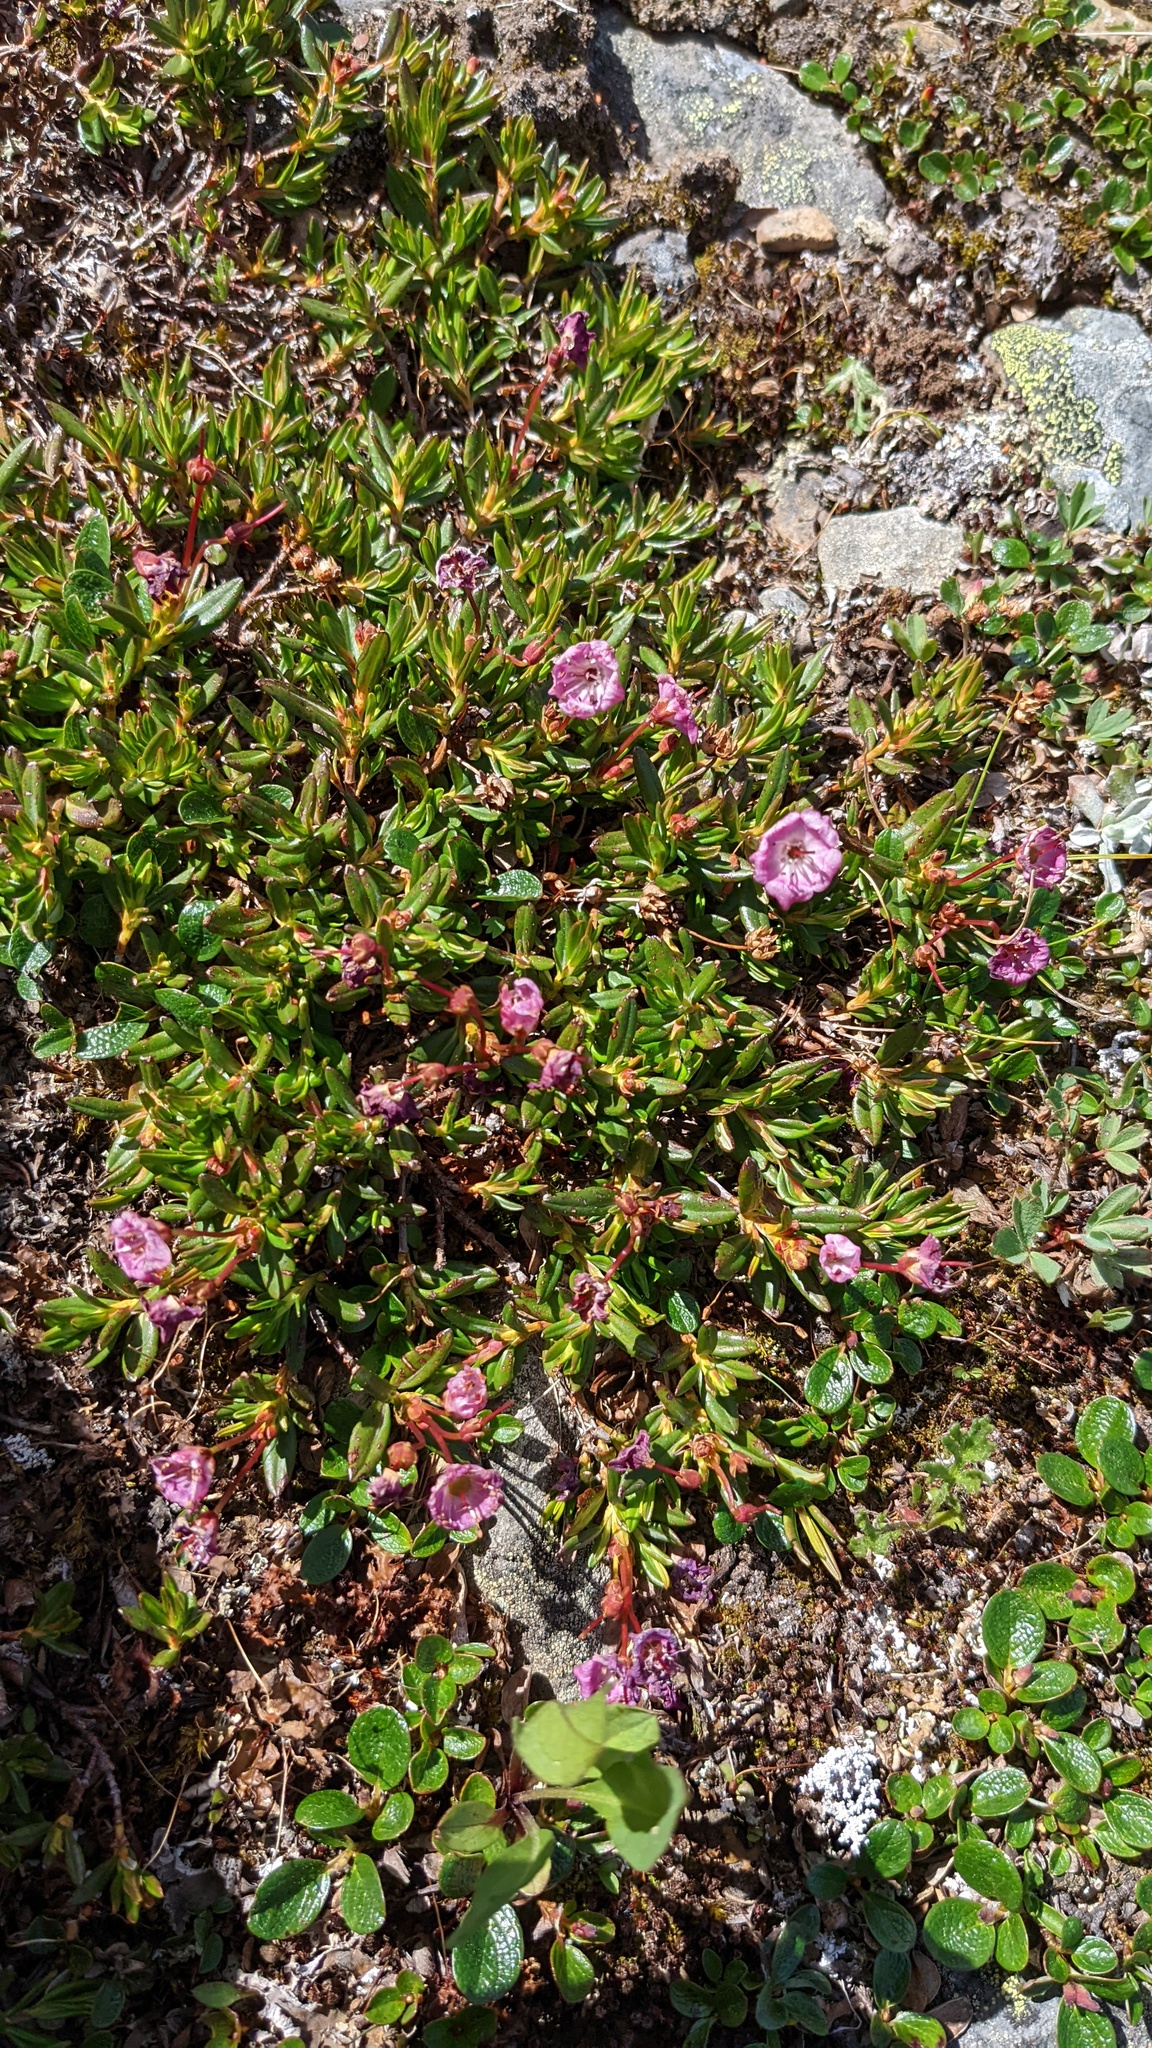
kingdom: Plantae
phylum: Tracheophyta
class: Magnoliopsida
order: Ericales
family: Ericaceae
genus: Kalmia
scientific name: Kalmia microphylla
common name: Alpine bog laurel
